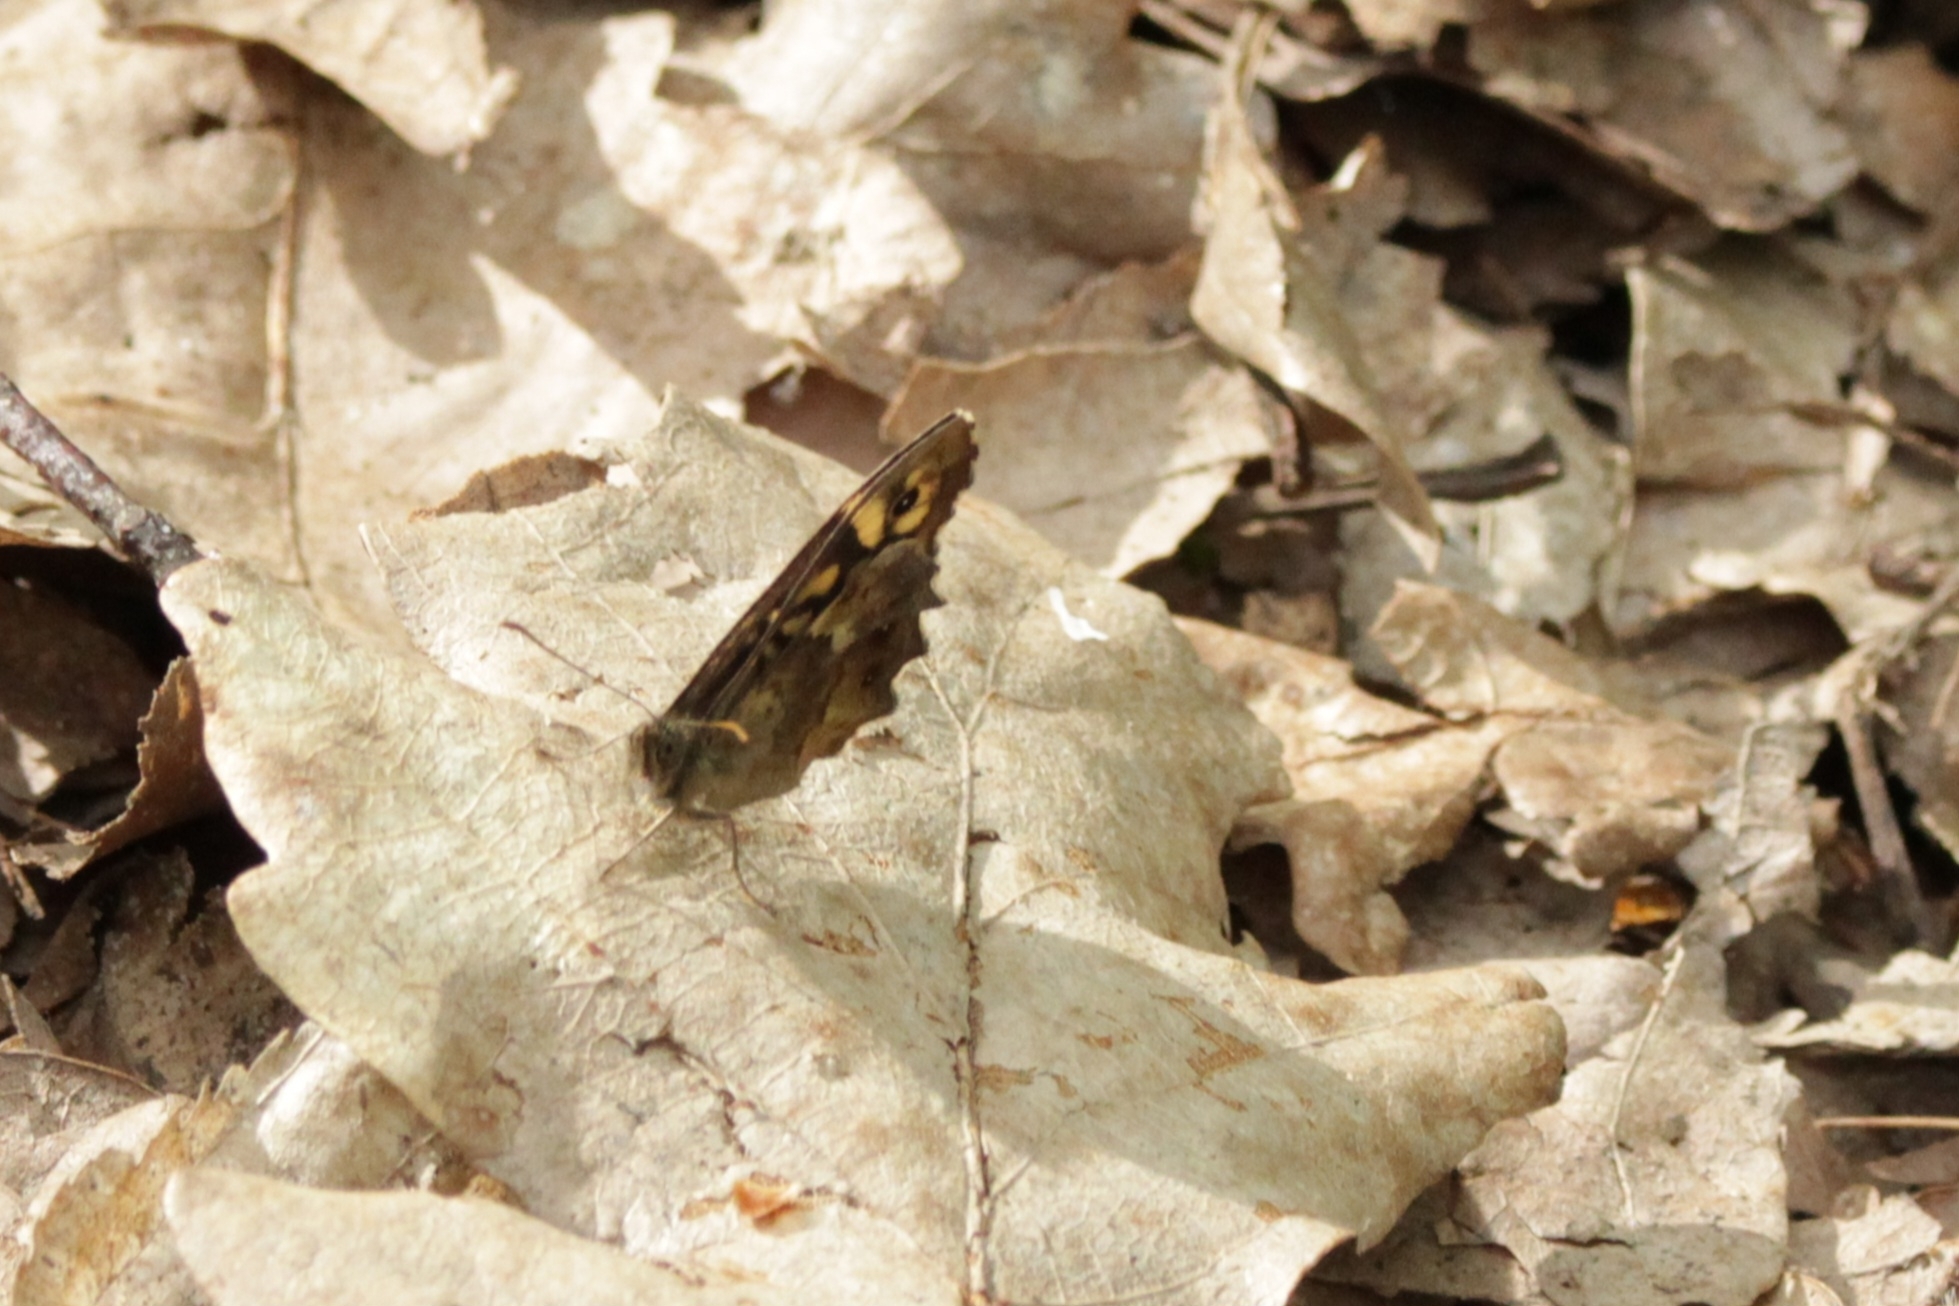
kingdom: Animalia
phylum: Arthropoda
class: Insecta
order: Lepidoptera
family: Nymphalidae
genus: Pararge
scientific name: Pararge aegeria
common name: Speckled wood
